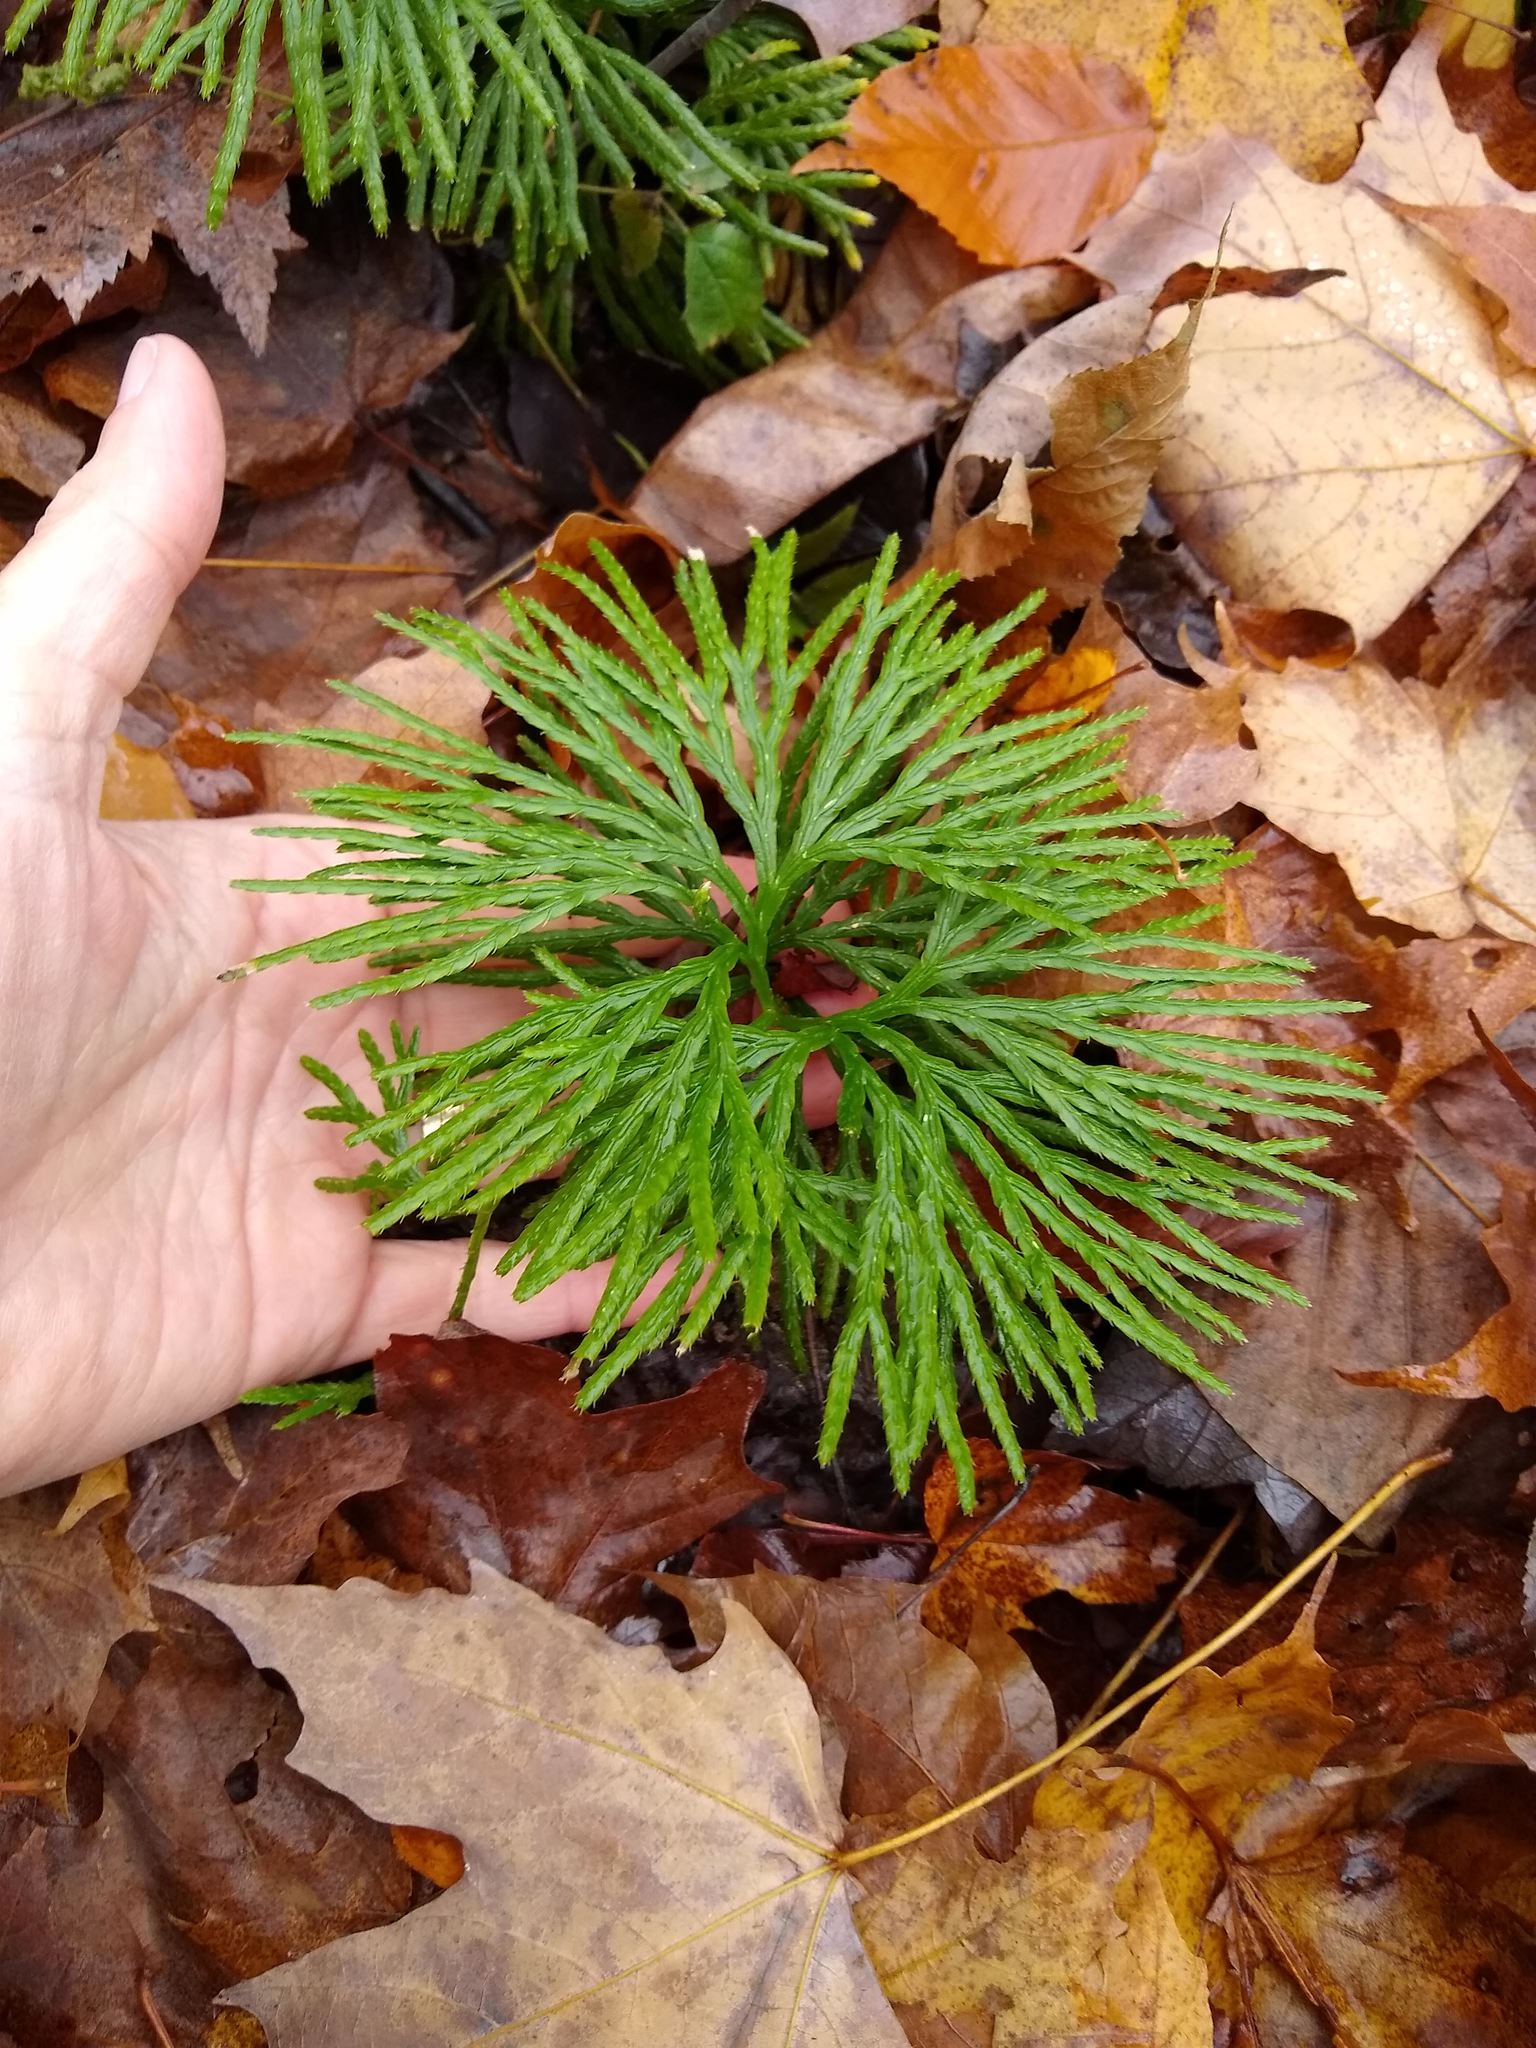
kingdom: Plantae
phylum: Tracheophyta
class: Lycopodiopsida
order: Lycopodiales
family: Lycopodiaceae
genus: Diphasiastrum
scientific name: Diphasiastrum digitatum
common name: Southern running-pine
